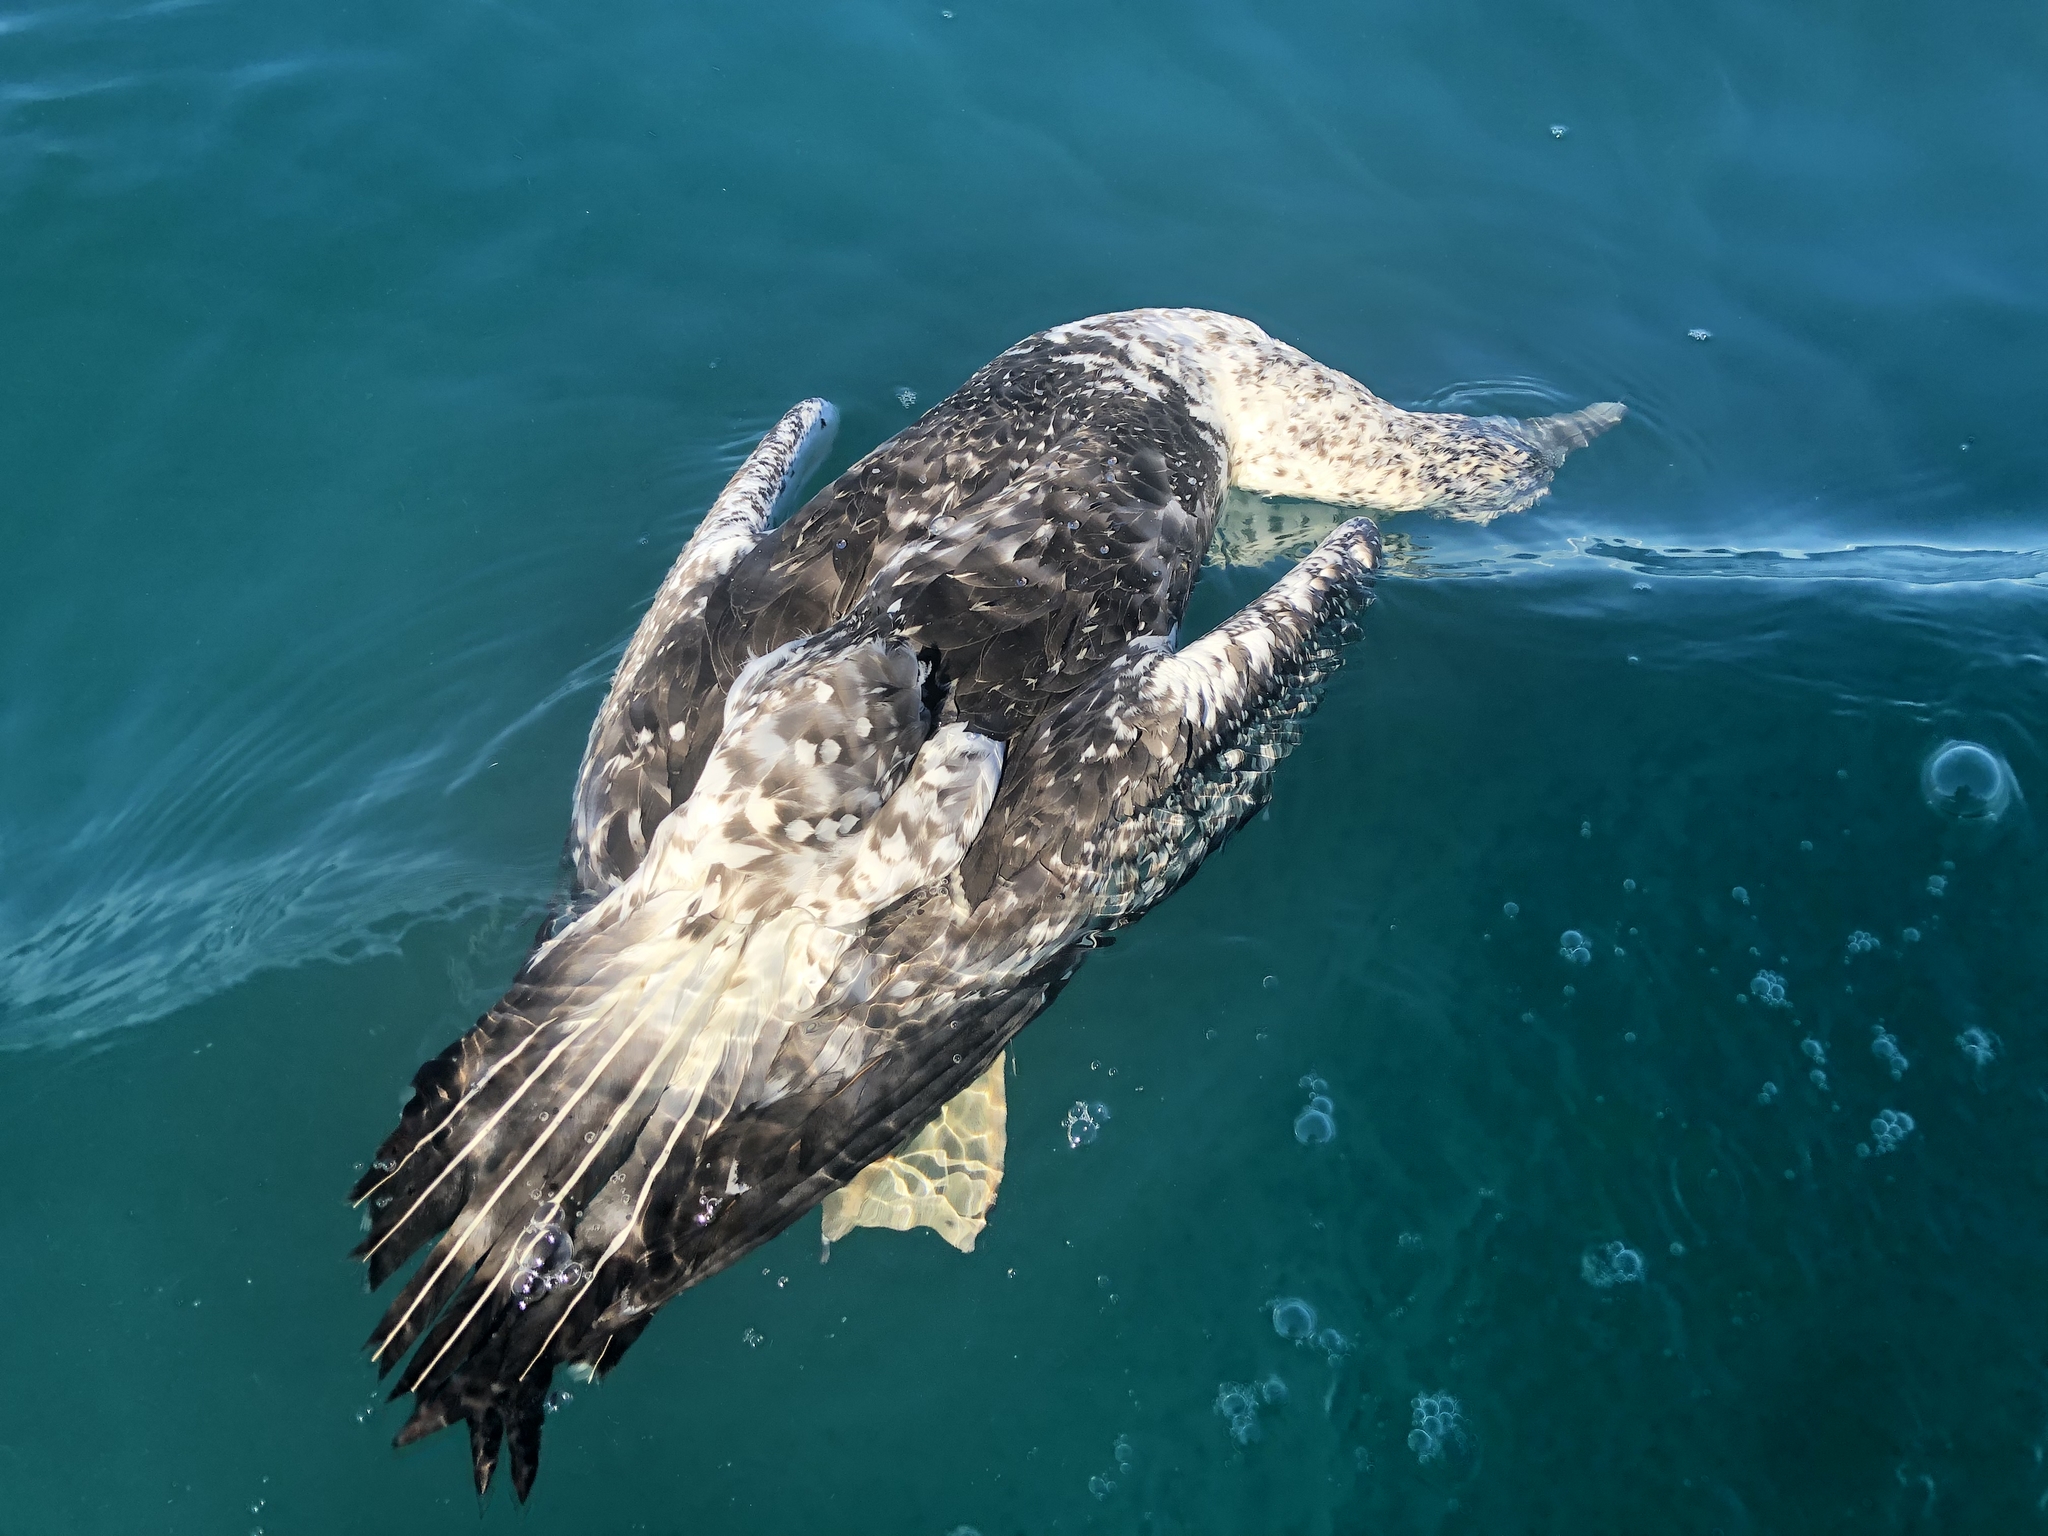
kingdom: Animalia
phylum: Chordata
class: Aves
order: Suliformes
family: Sulidae
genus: Morus
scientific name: Morus serrator
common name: Australasian gannet
